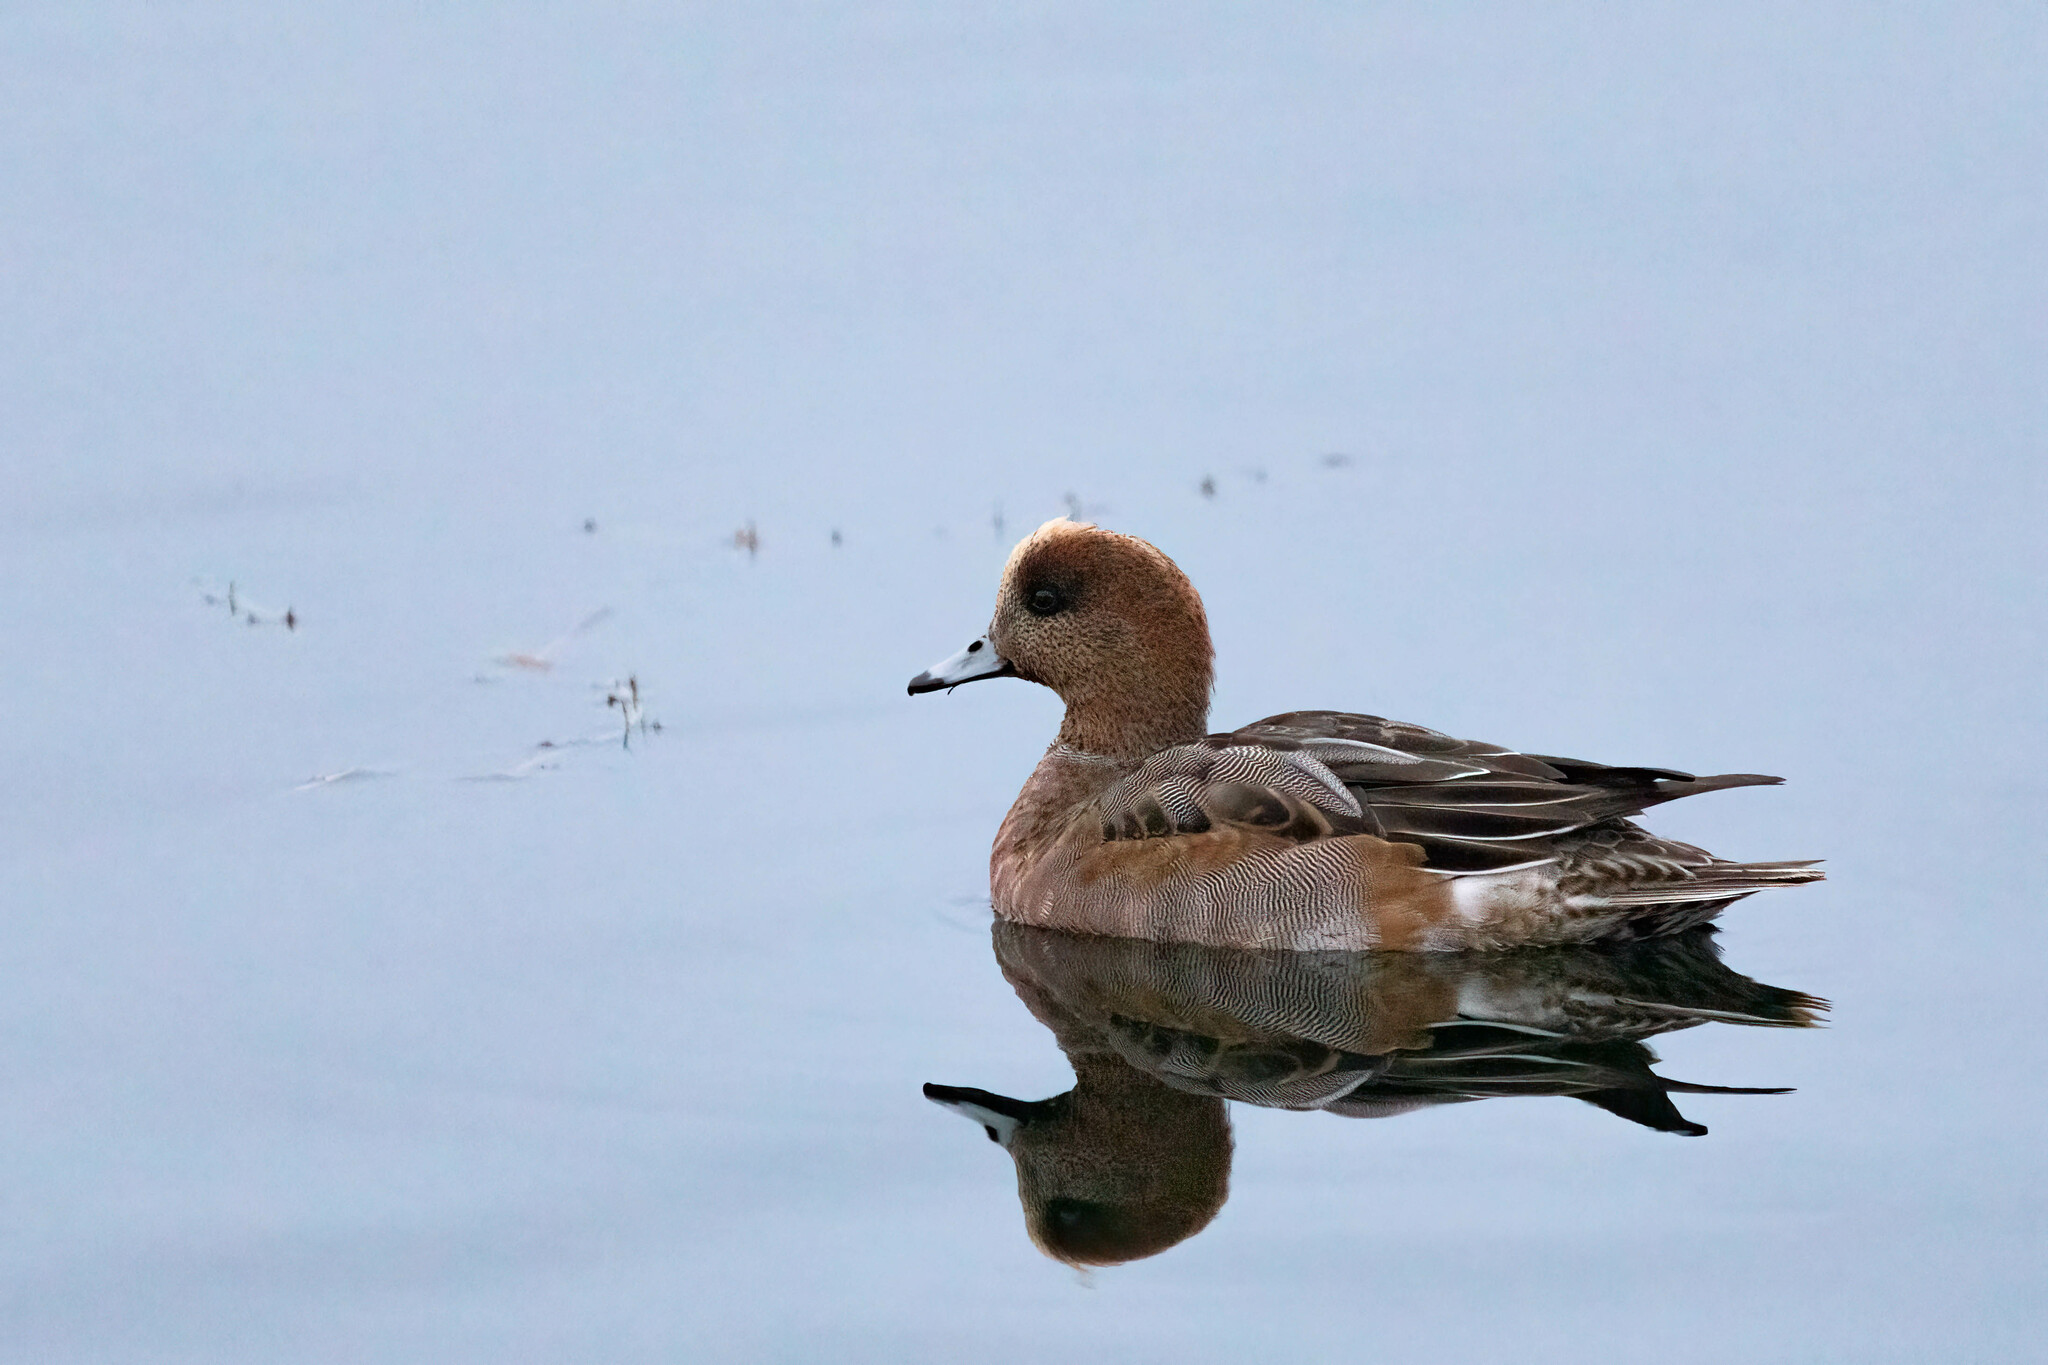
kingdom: Animalia
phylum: Chordata
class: Aves
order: Anseriformes
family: Anatidae
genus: Mareca
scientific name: Mareca penelope
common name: Eurasian wigeon
